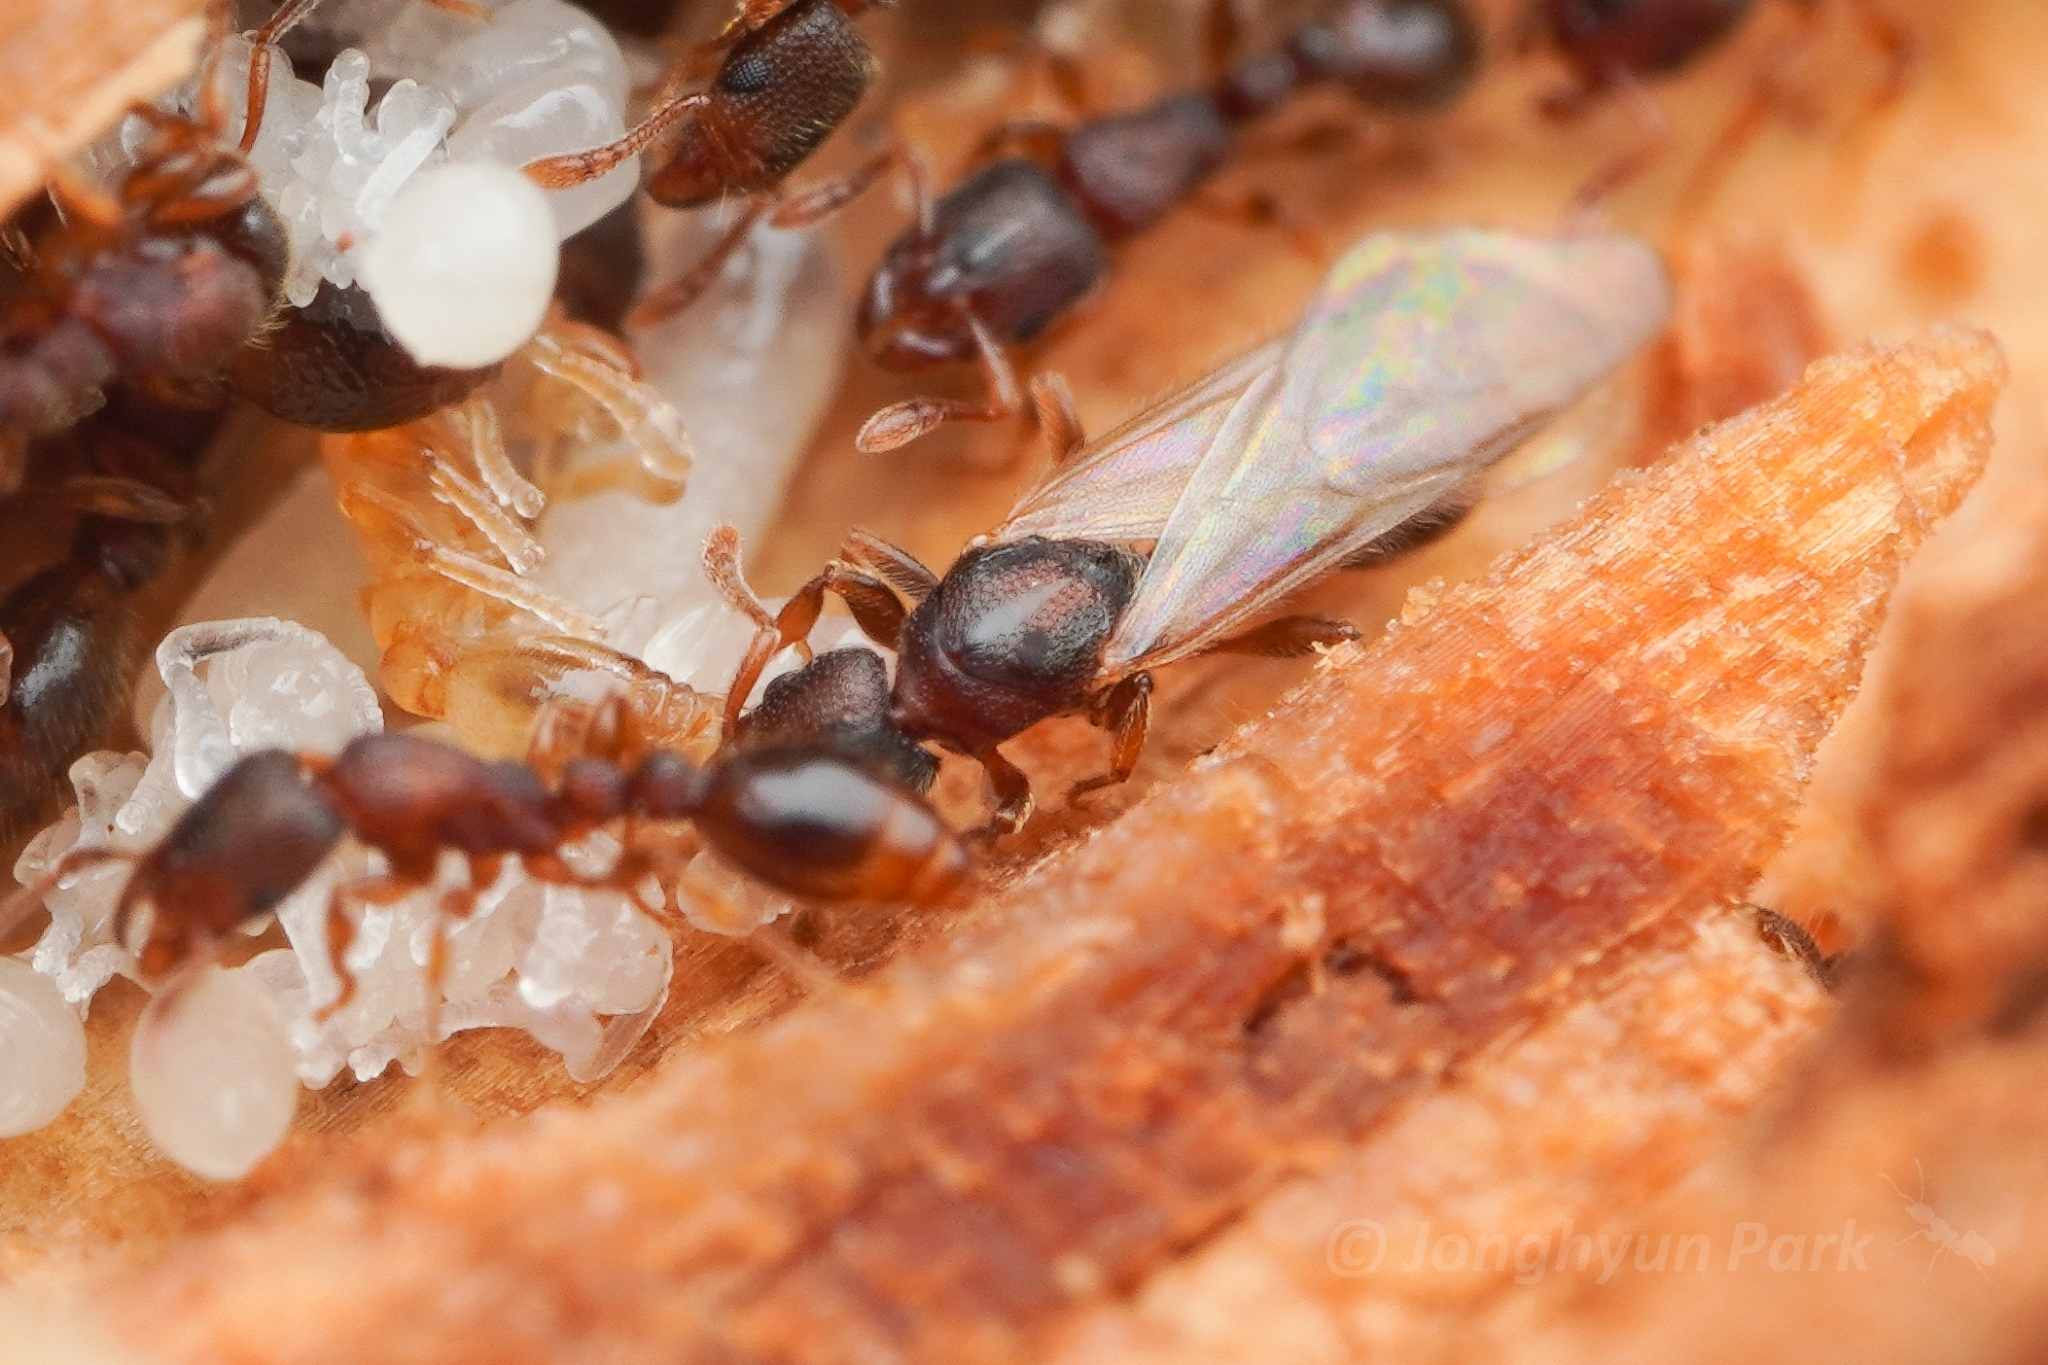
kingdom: Animalia
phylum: Arthropoda
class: Insecta
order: Hymenoptera
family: Formicidae
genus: Vollenhovia
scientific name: Vollenhovia emeryi
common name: Ant
